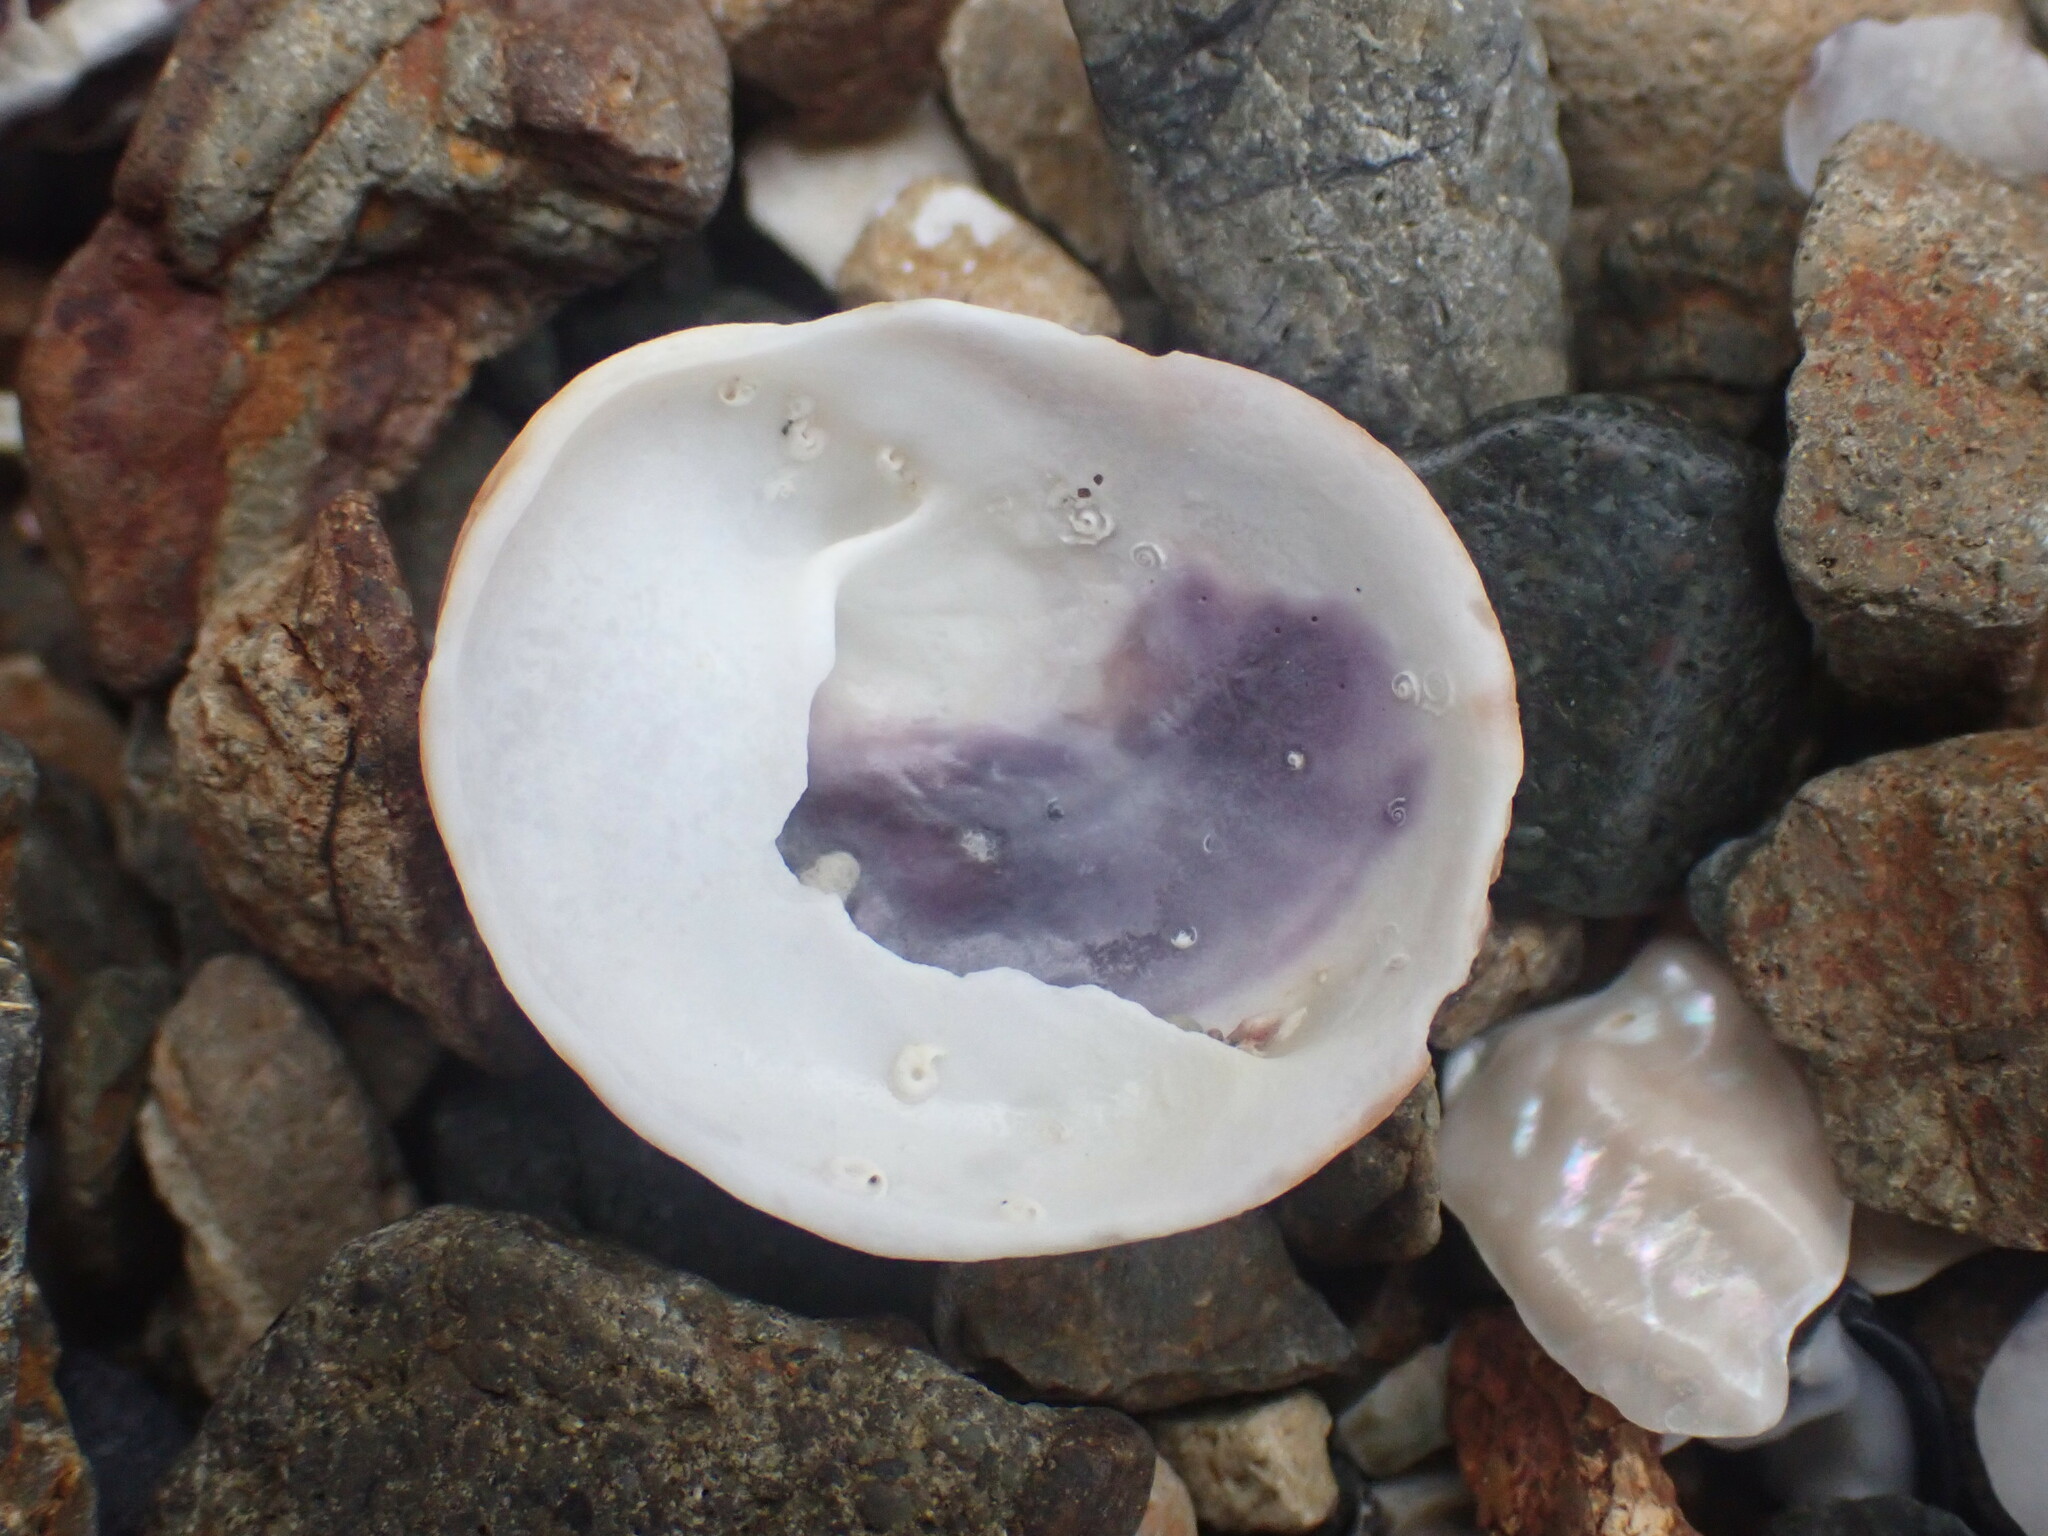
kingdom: Animalia
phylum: Mollusca
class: Gastropoda
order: Littorinimorpha
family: Calyptraeidae
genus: Sigapatella
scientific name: Sigapatella novaezelandiae
